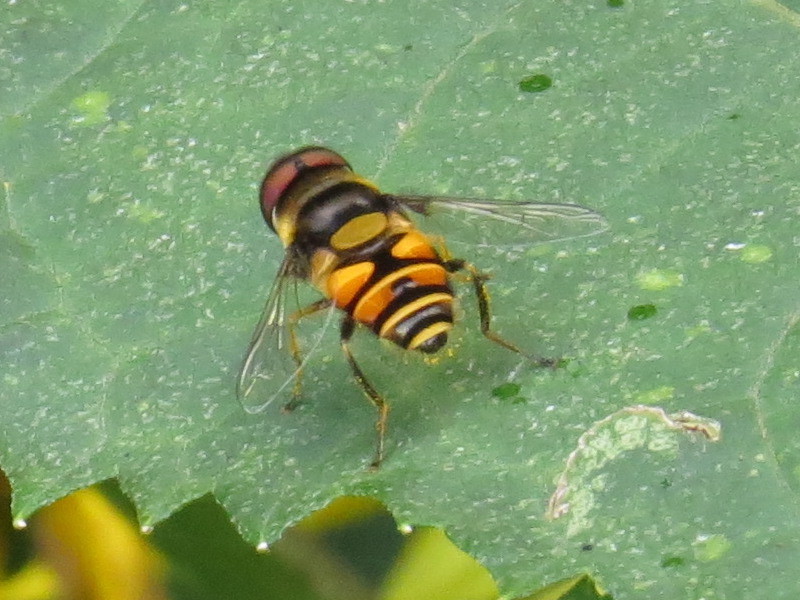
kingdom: Animalia
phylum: Arthropoda
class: Insecta
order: Diptera
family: Syrphidae
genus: Eristalis
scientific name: Eristalis transversa
